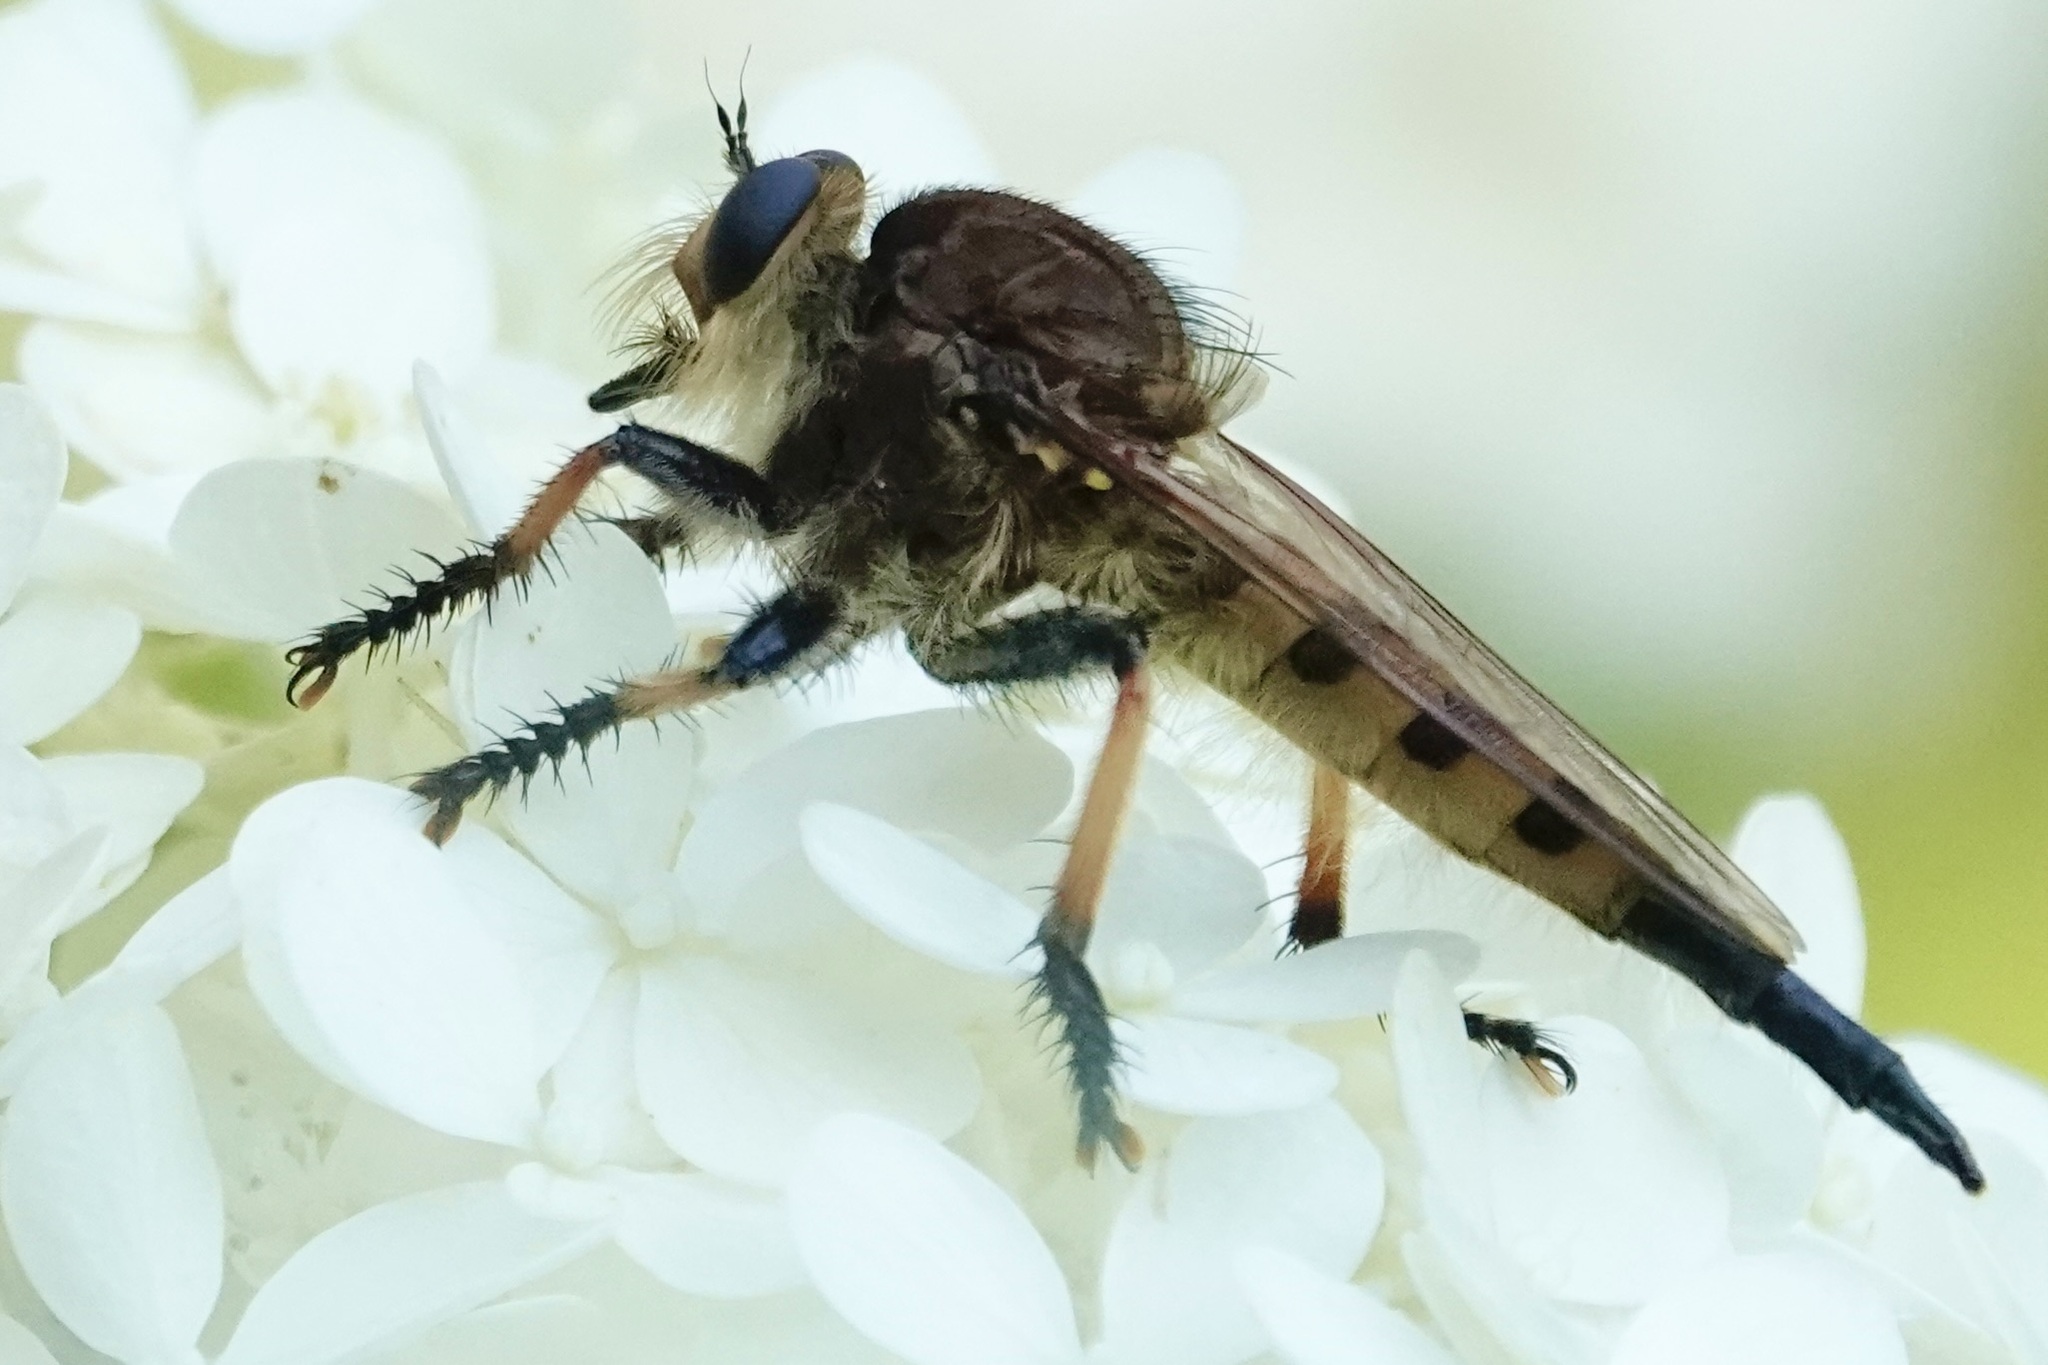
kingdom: Animalia
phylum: Arthropoda
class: Insecta
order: Diptera
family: Asilidae
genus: Promachus
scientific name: Promachus rufipes
